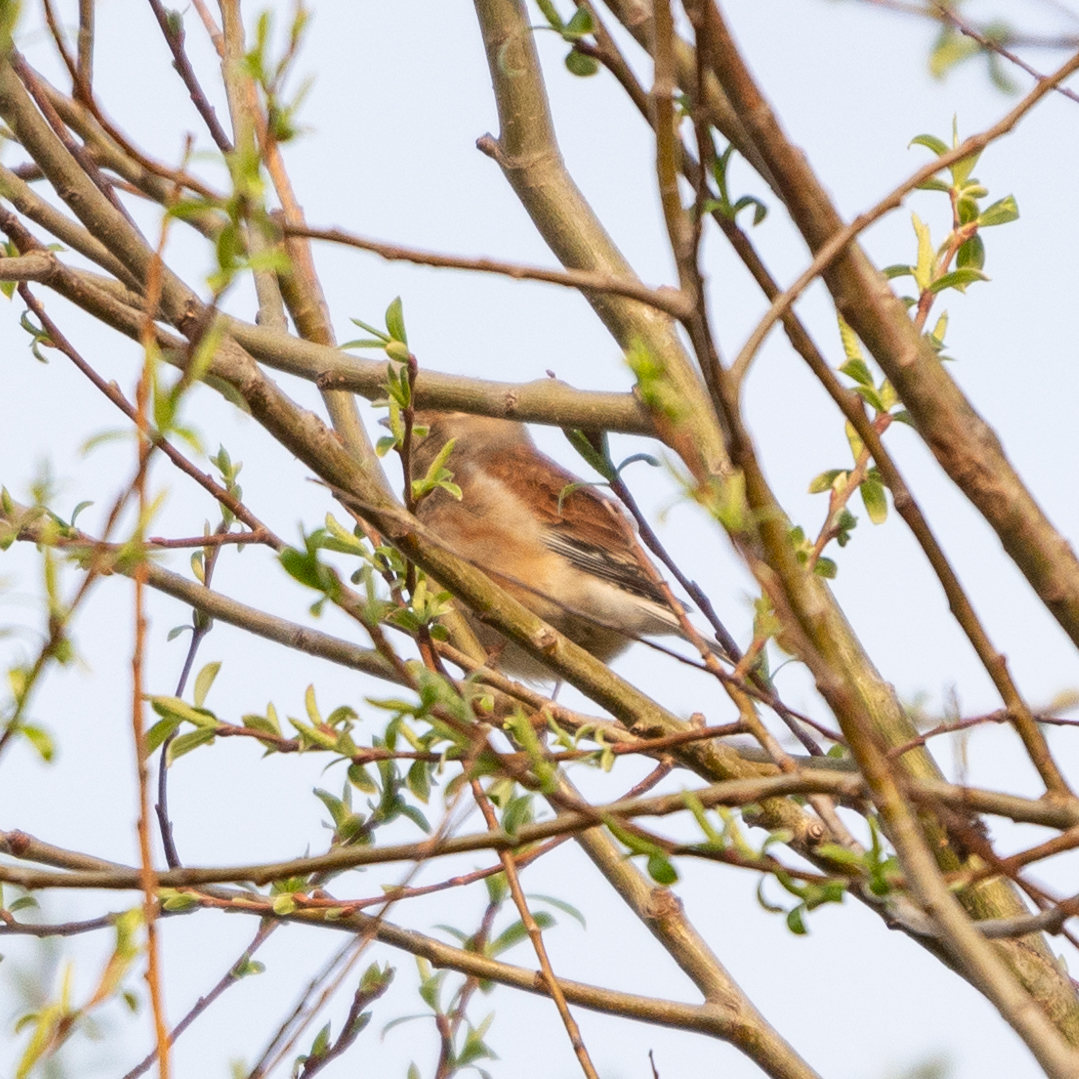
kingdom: Animalia
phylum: Chordata
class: Aves
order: Passeriformes
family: Fringillidae
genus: Linaria
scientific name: Linaria cannabina
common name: Common linnet
